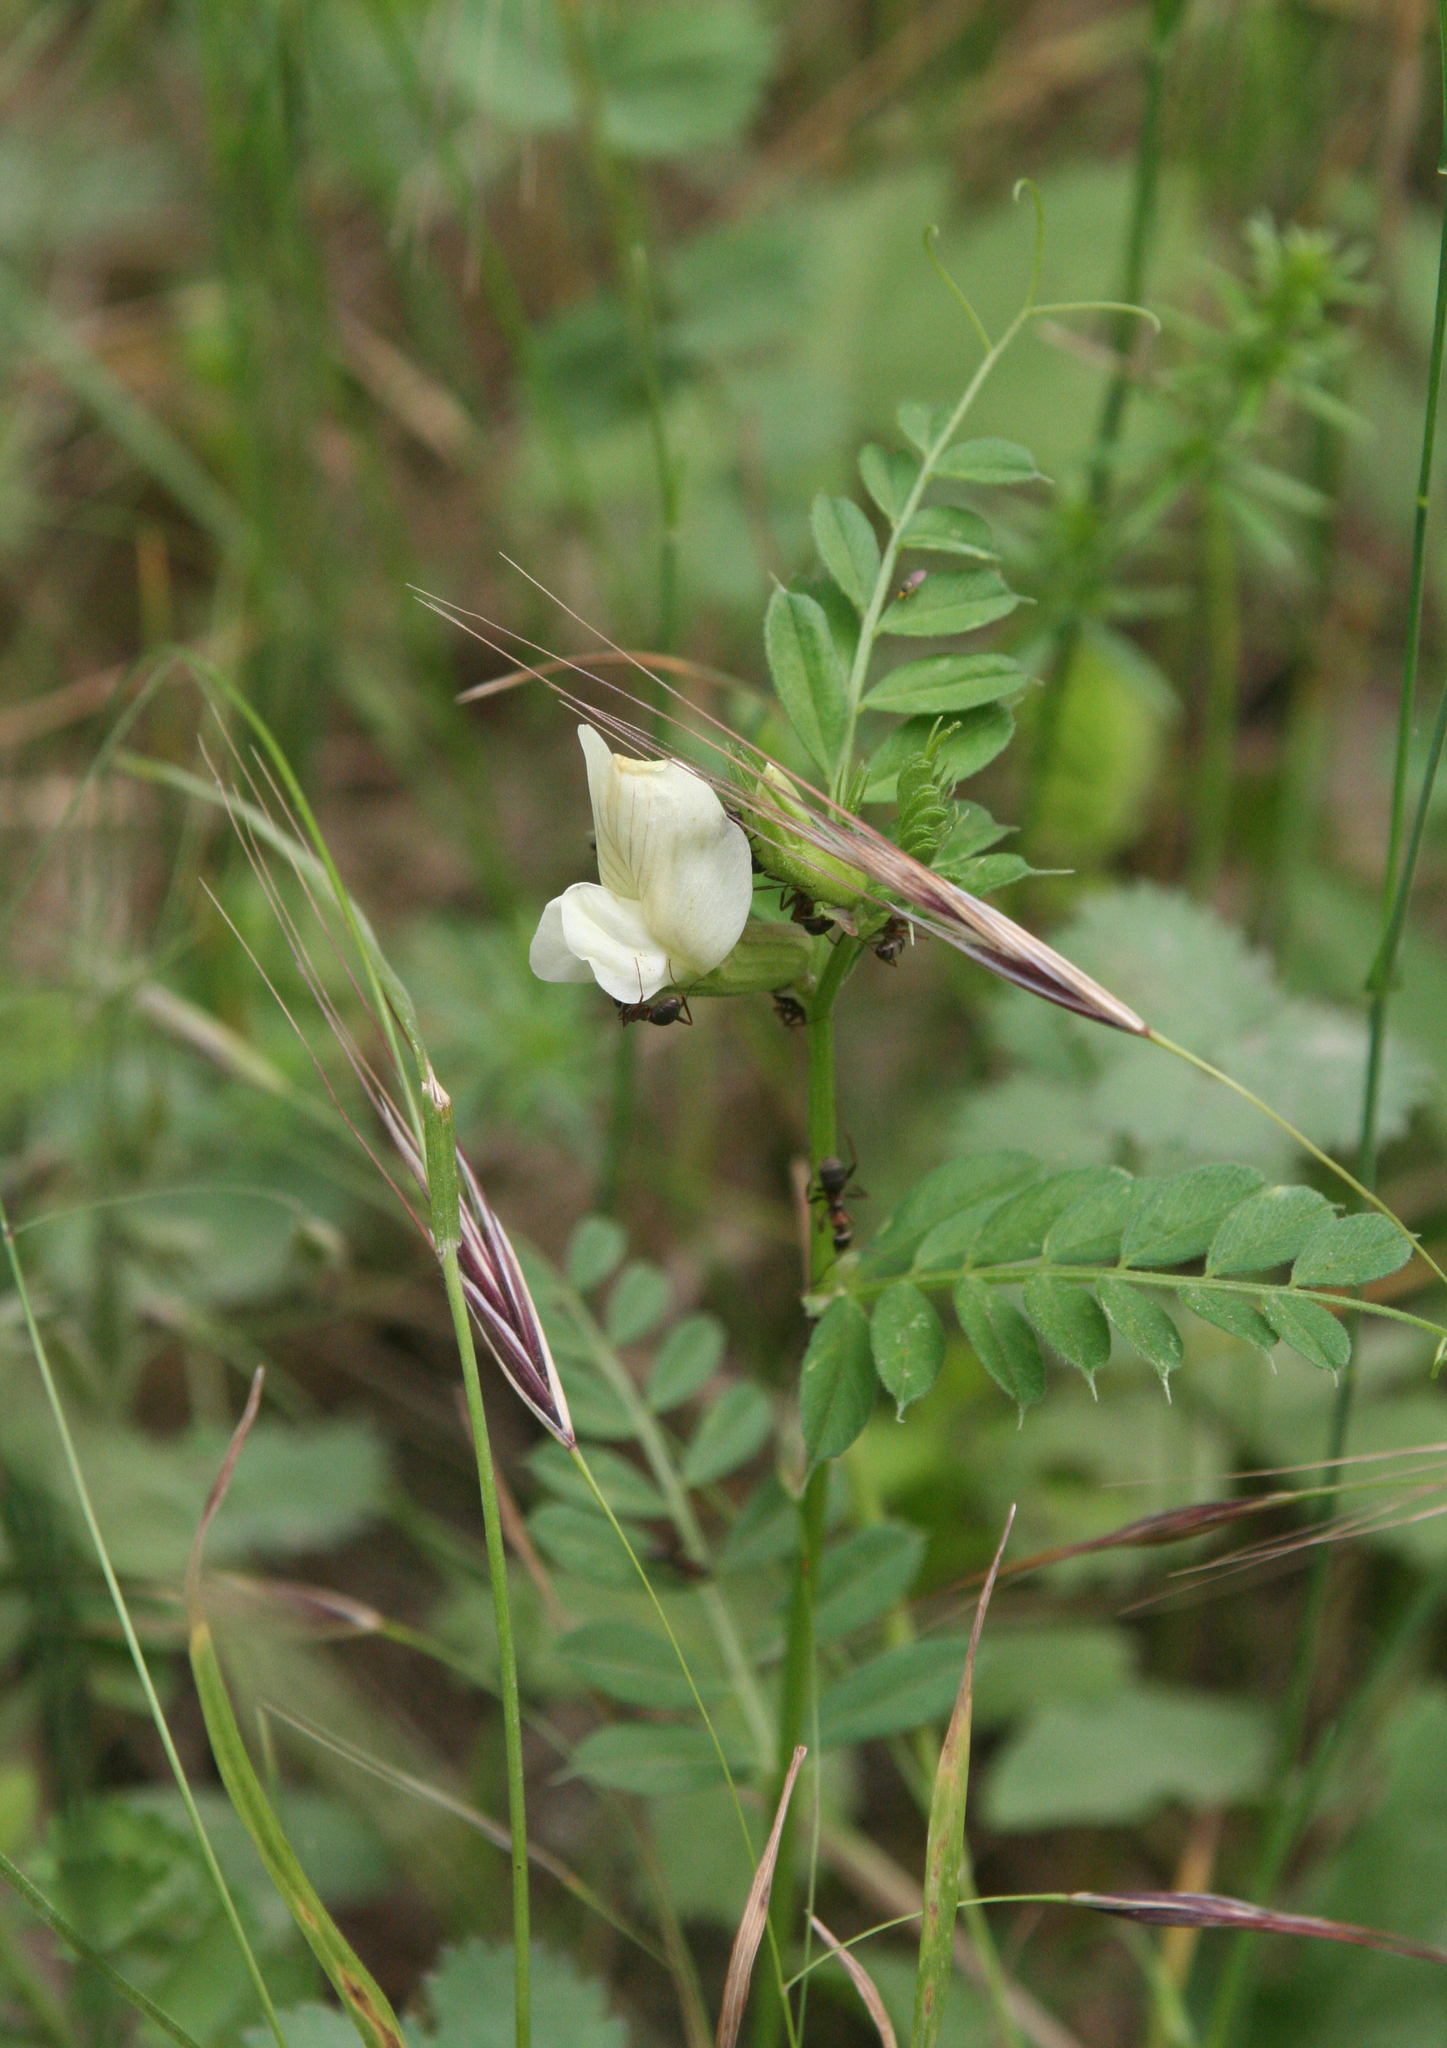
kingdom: Plantae
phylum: Tracheophyta
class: Magnoliopsida
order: Fabales
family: Fabaceae
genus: Vicia
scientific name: Vicia grandiflora
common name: Large yellow vetch
